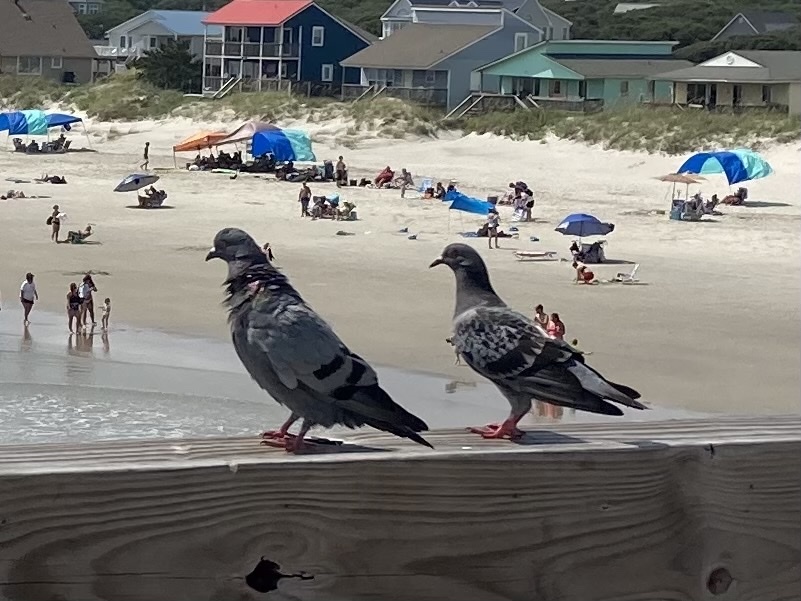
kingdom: Animalia
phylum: Chordata
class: Aves
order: Columbiformes
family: Columbidae
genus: Columba
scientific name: Columba livia
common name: Rock pigeon
